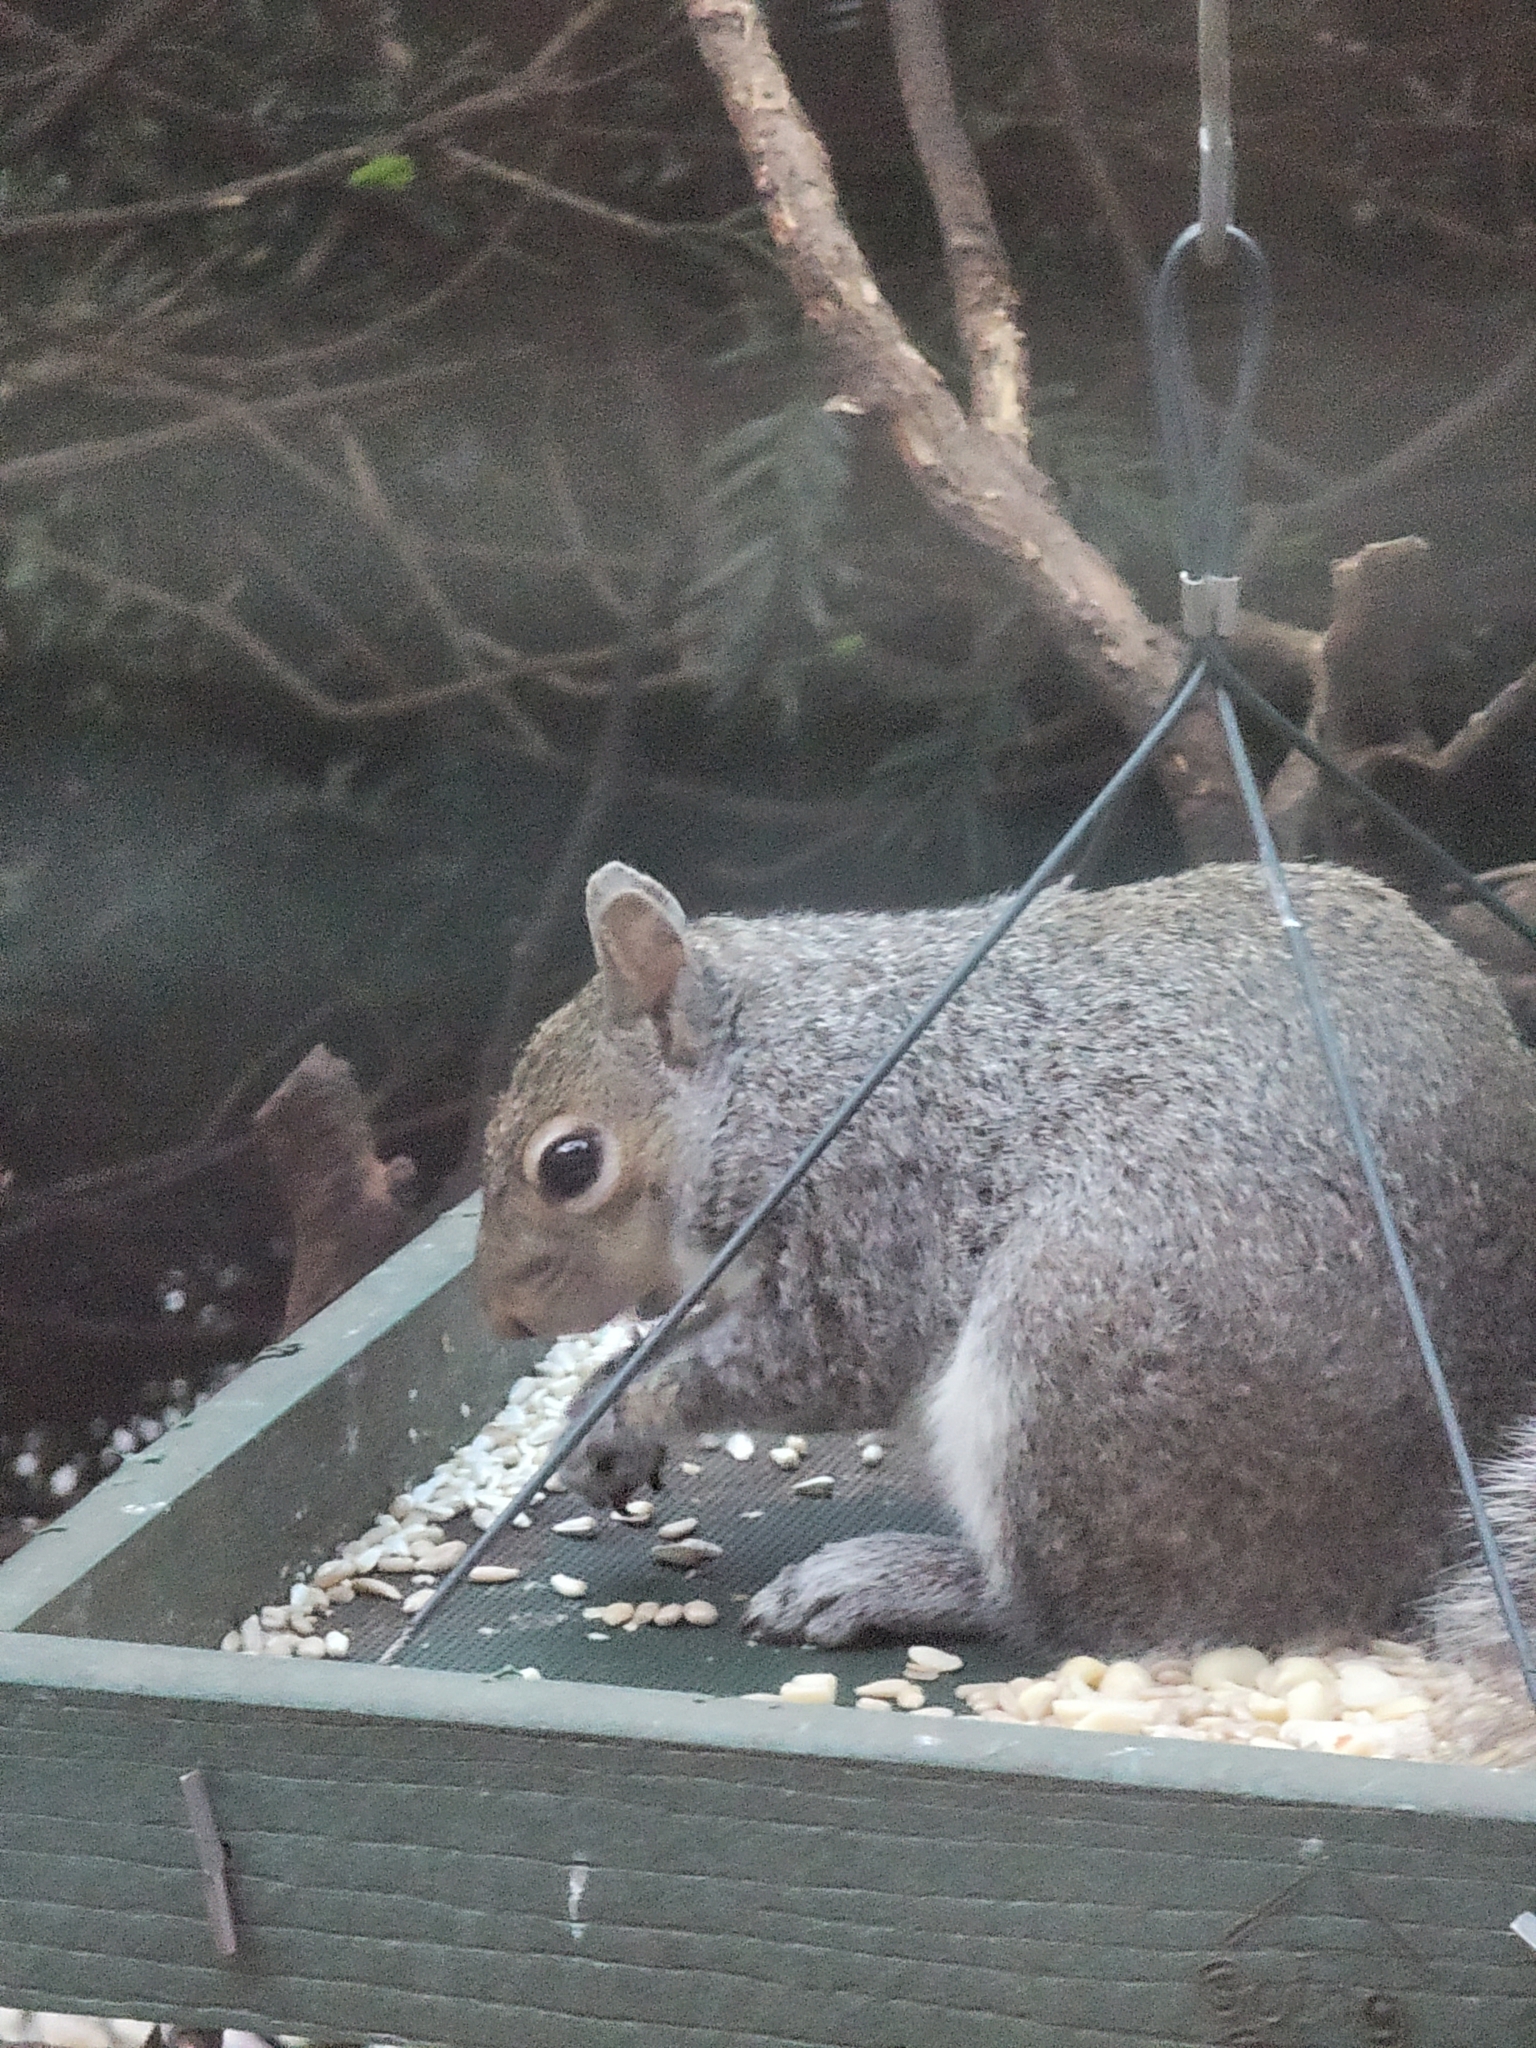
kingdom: Animalia
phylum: Chordata
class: Mammalia
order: Rodentia
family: Sciuridae
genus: Sciurus
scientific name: Sciurus carolinensis
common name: Eastern gray squirrel
